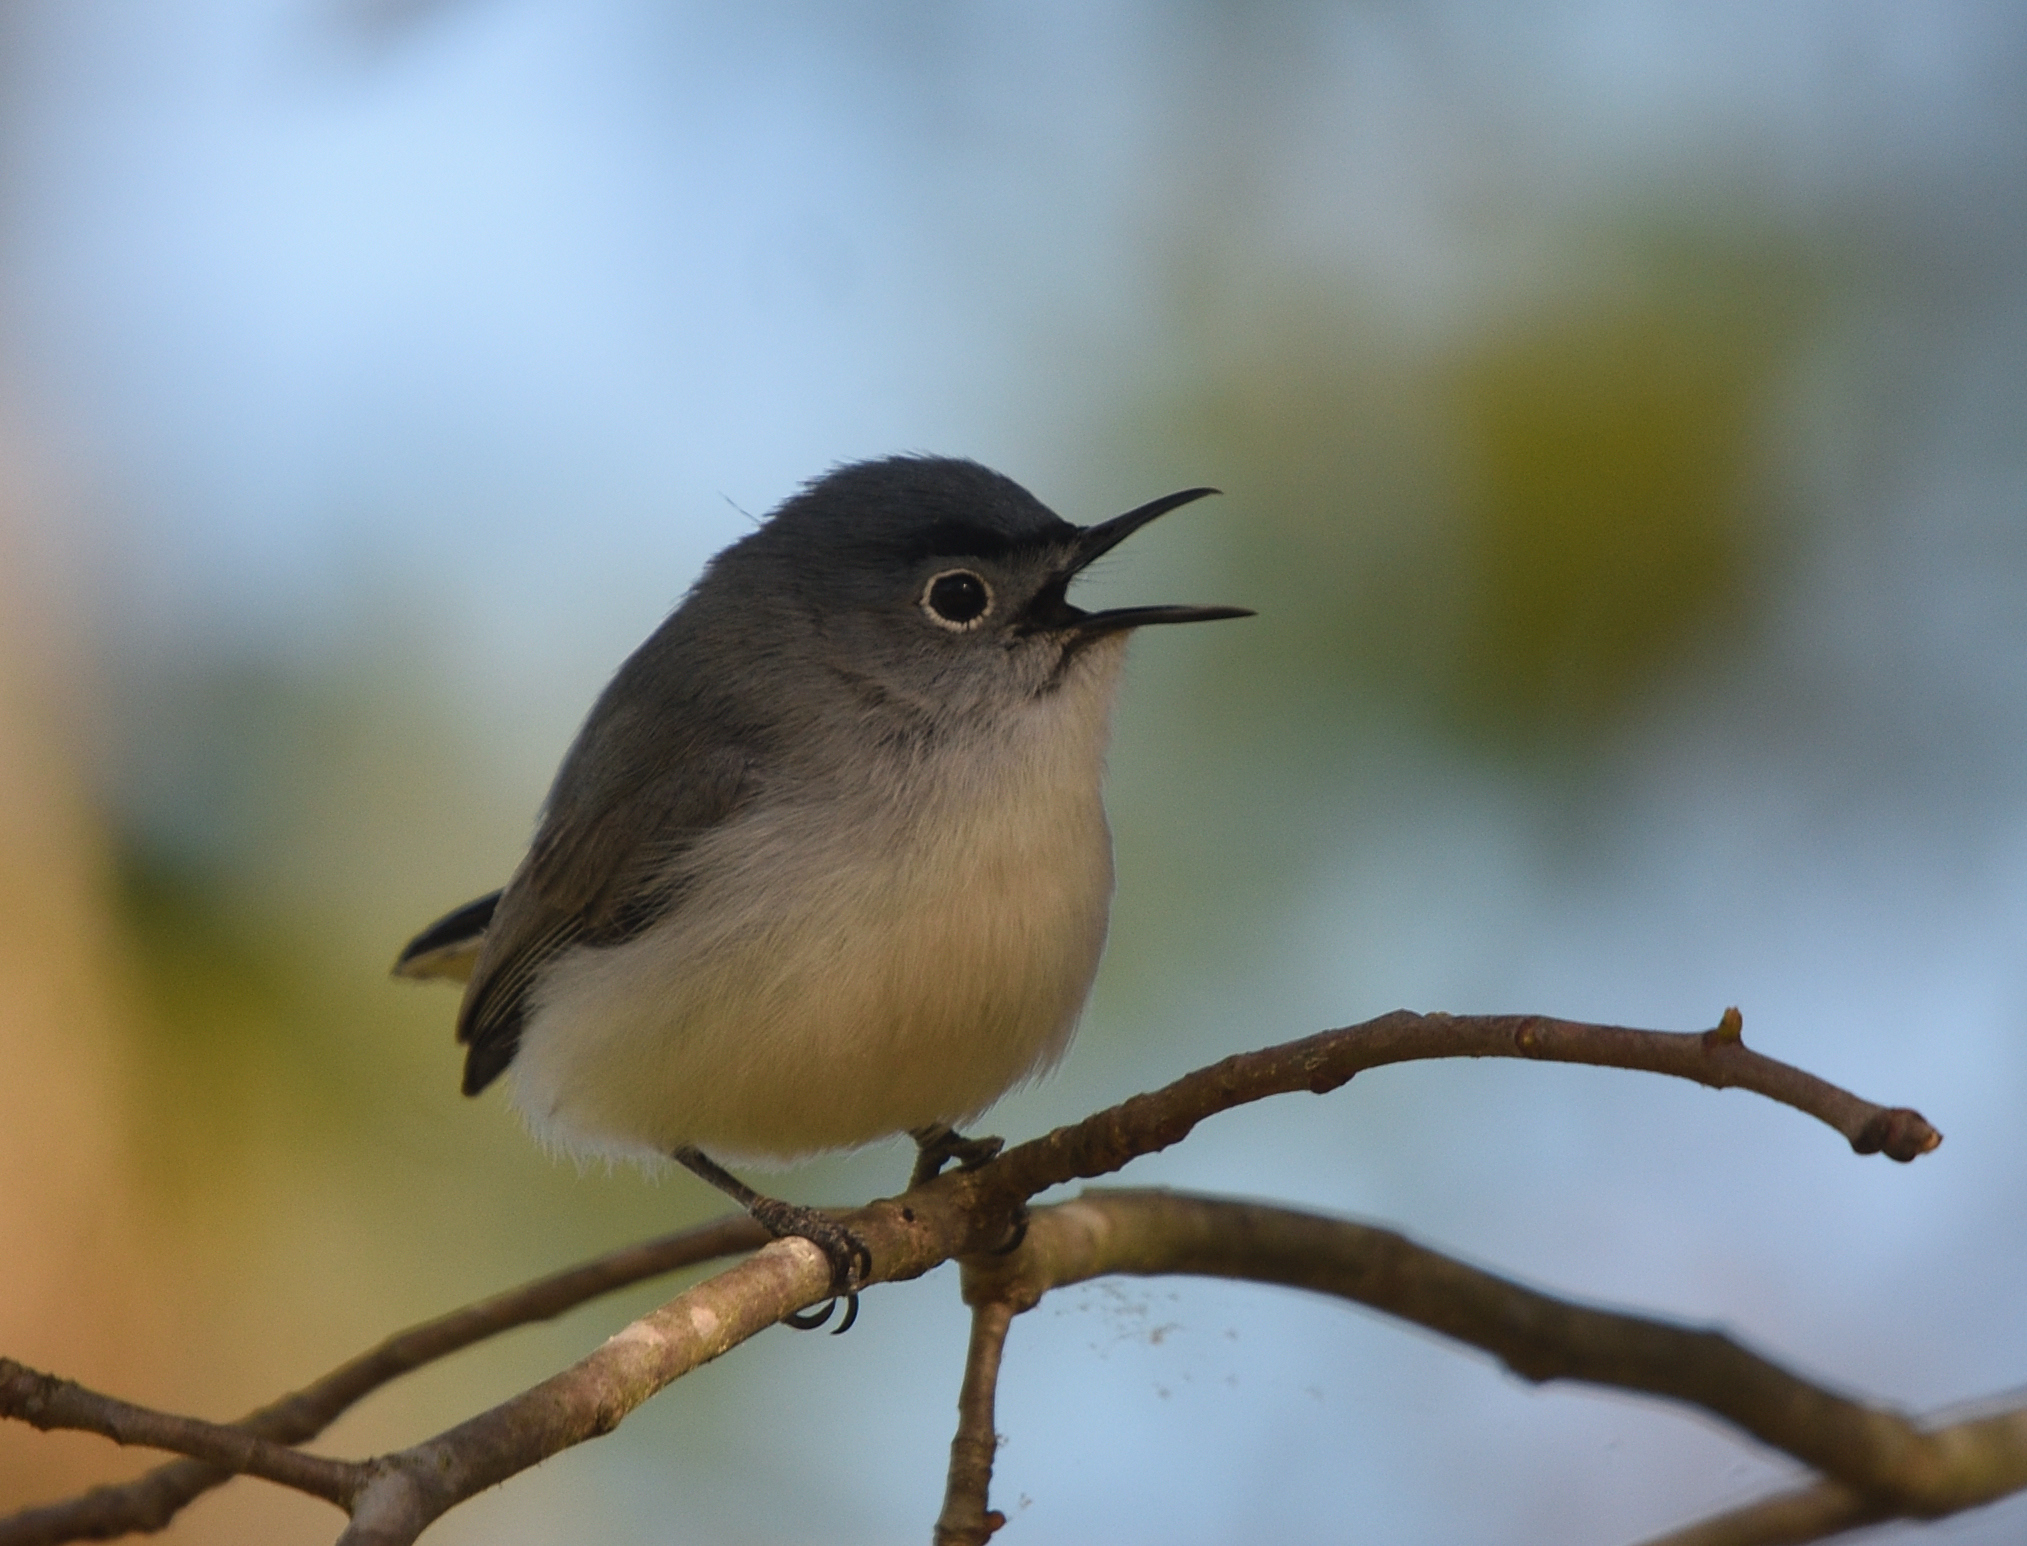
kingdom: Animalia
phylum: Chordata
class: Aves
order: Passeriformes
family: Polioptilidae
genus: Polioptila
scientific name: Polioptila caerulea
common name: Blue-gray gnatcatcher
